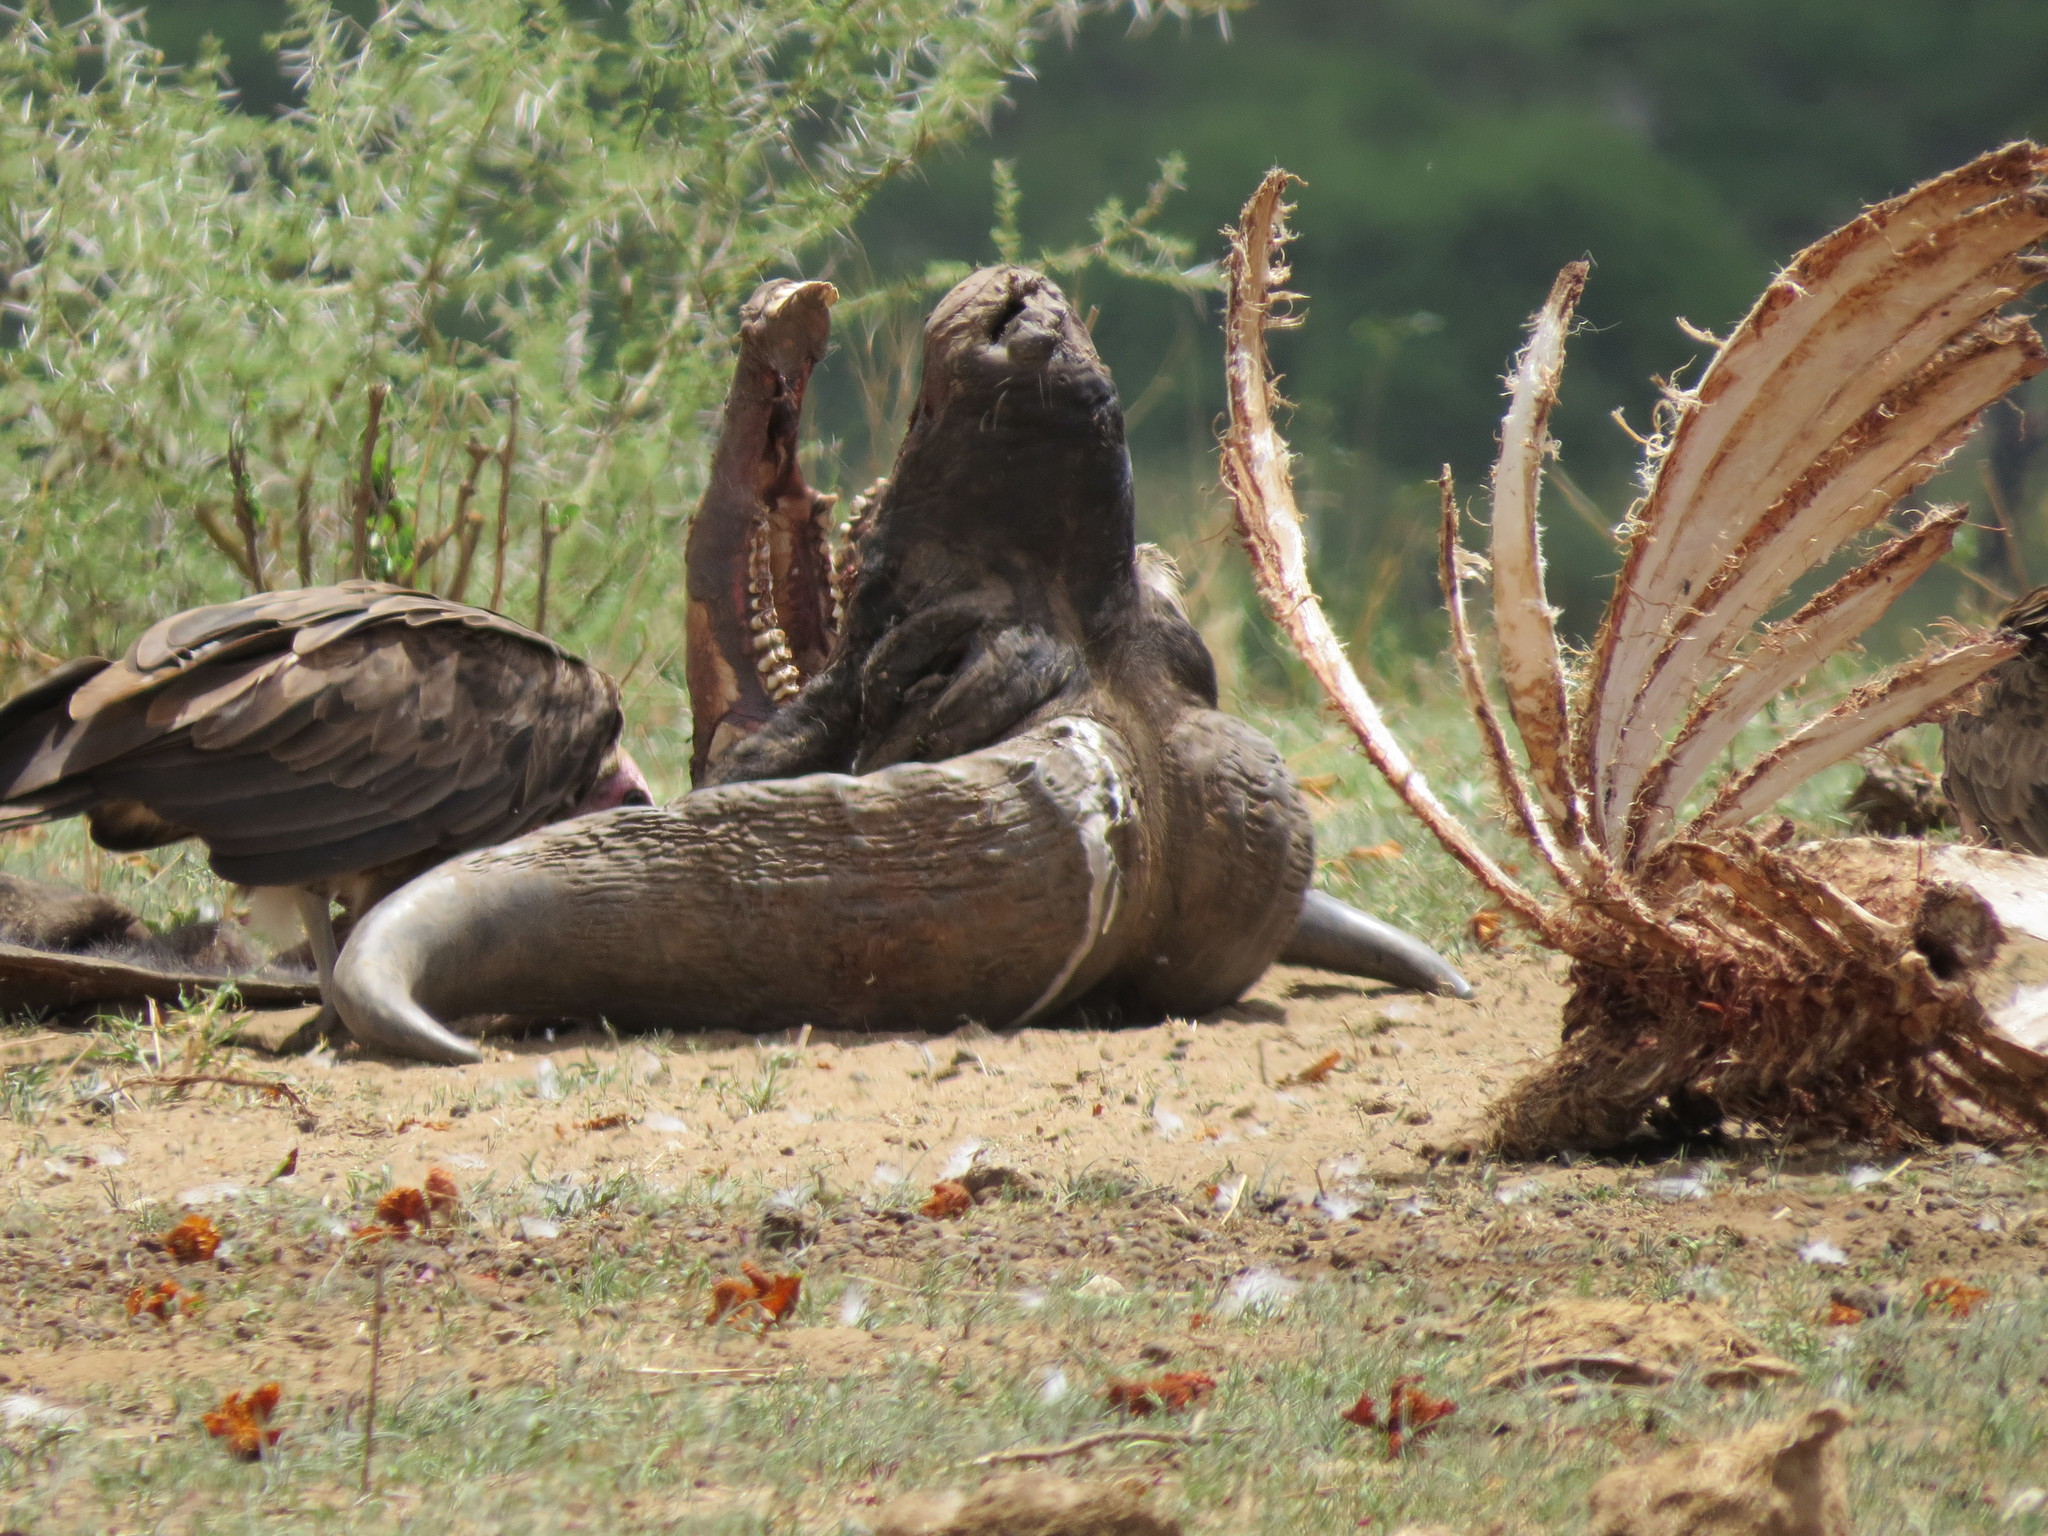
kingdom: Animalia
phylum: Chordata
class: Mammalia
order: Artiodactyla
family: Bovidae
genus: Syncerus
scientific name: Syncerus caffer
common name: African buffalo
